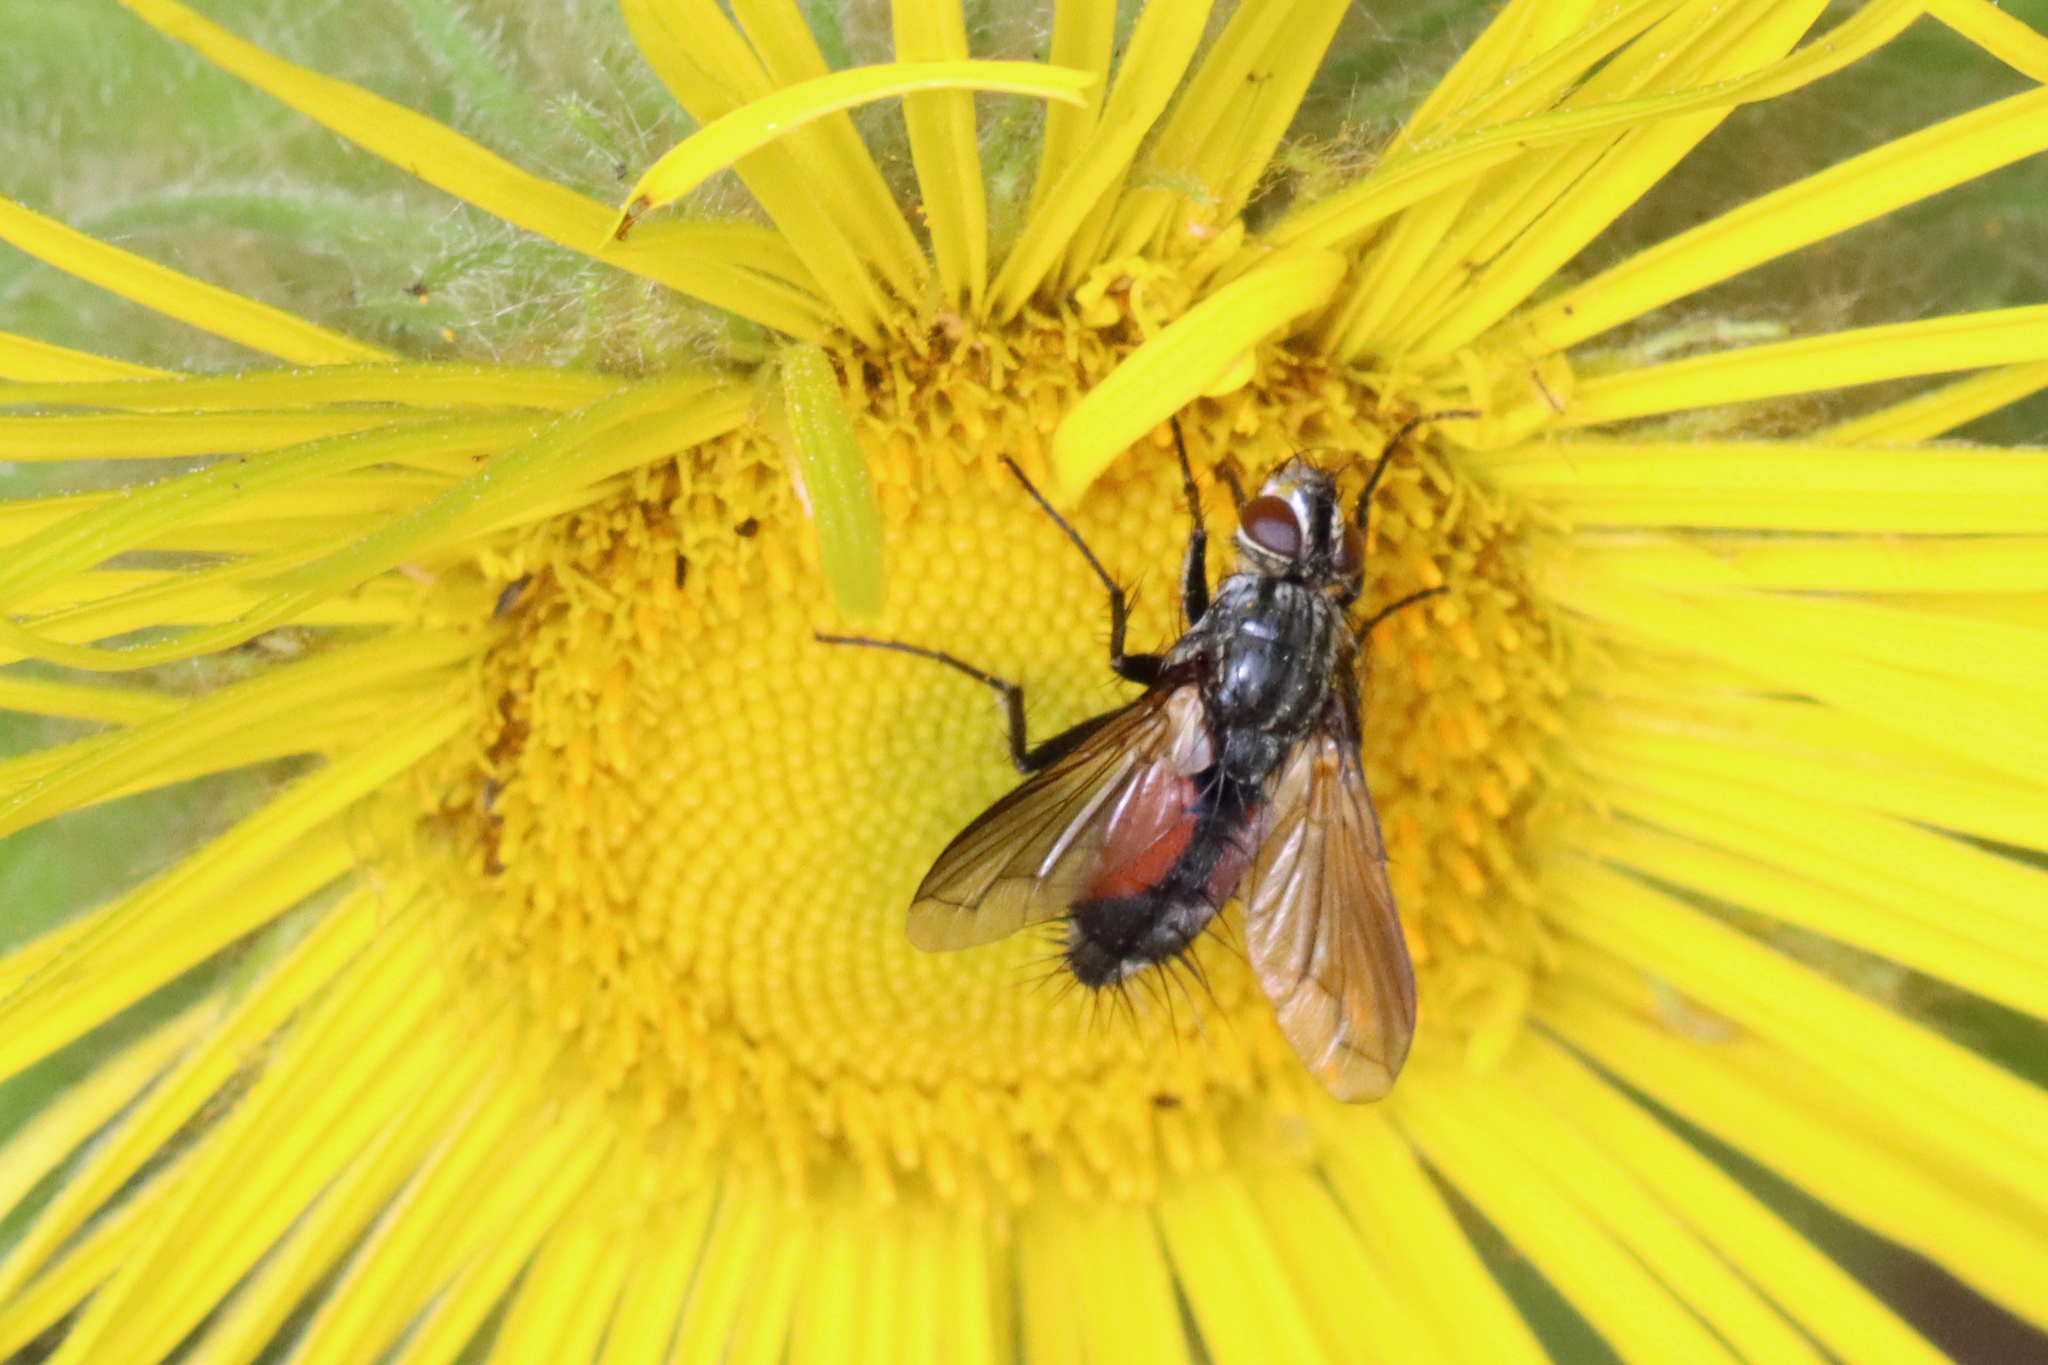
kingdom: Animalia
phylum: Arthropoda
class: Insecta
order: Diptera
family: Tachinidae
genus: Eriothrix
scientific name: Eriothrix rufomaculatus
